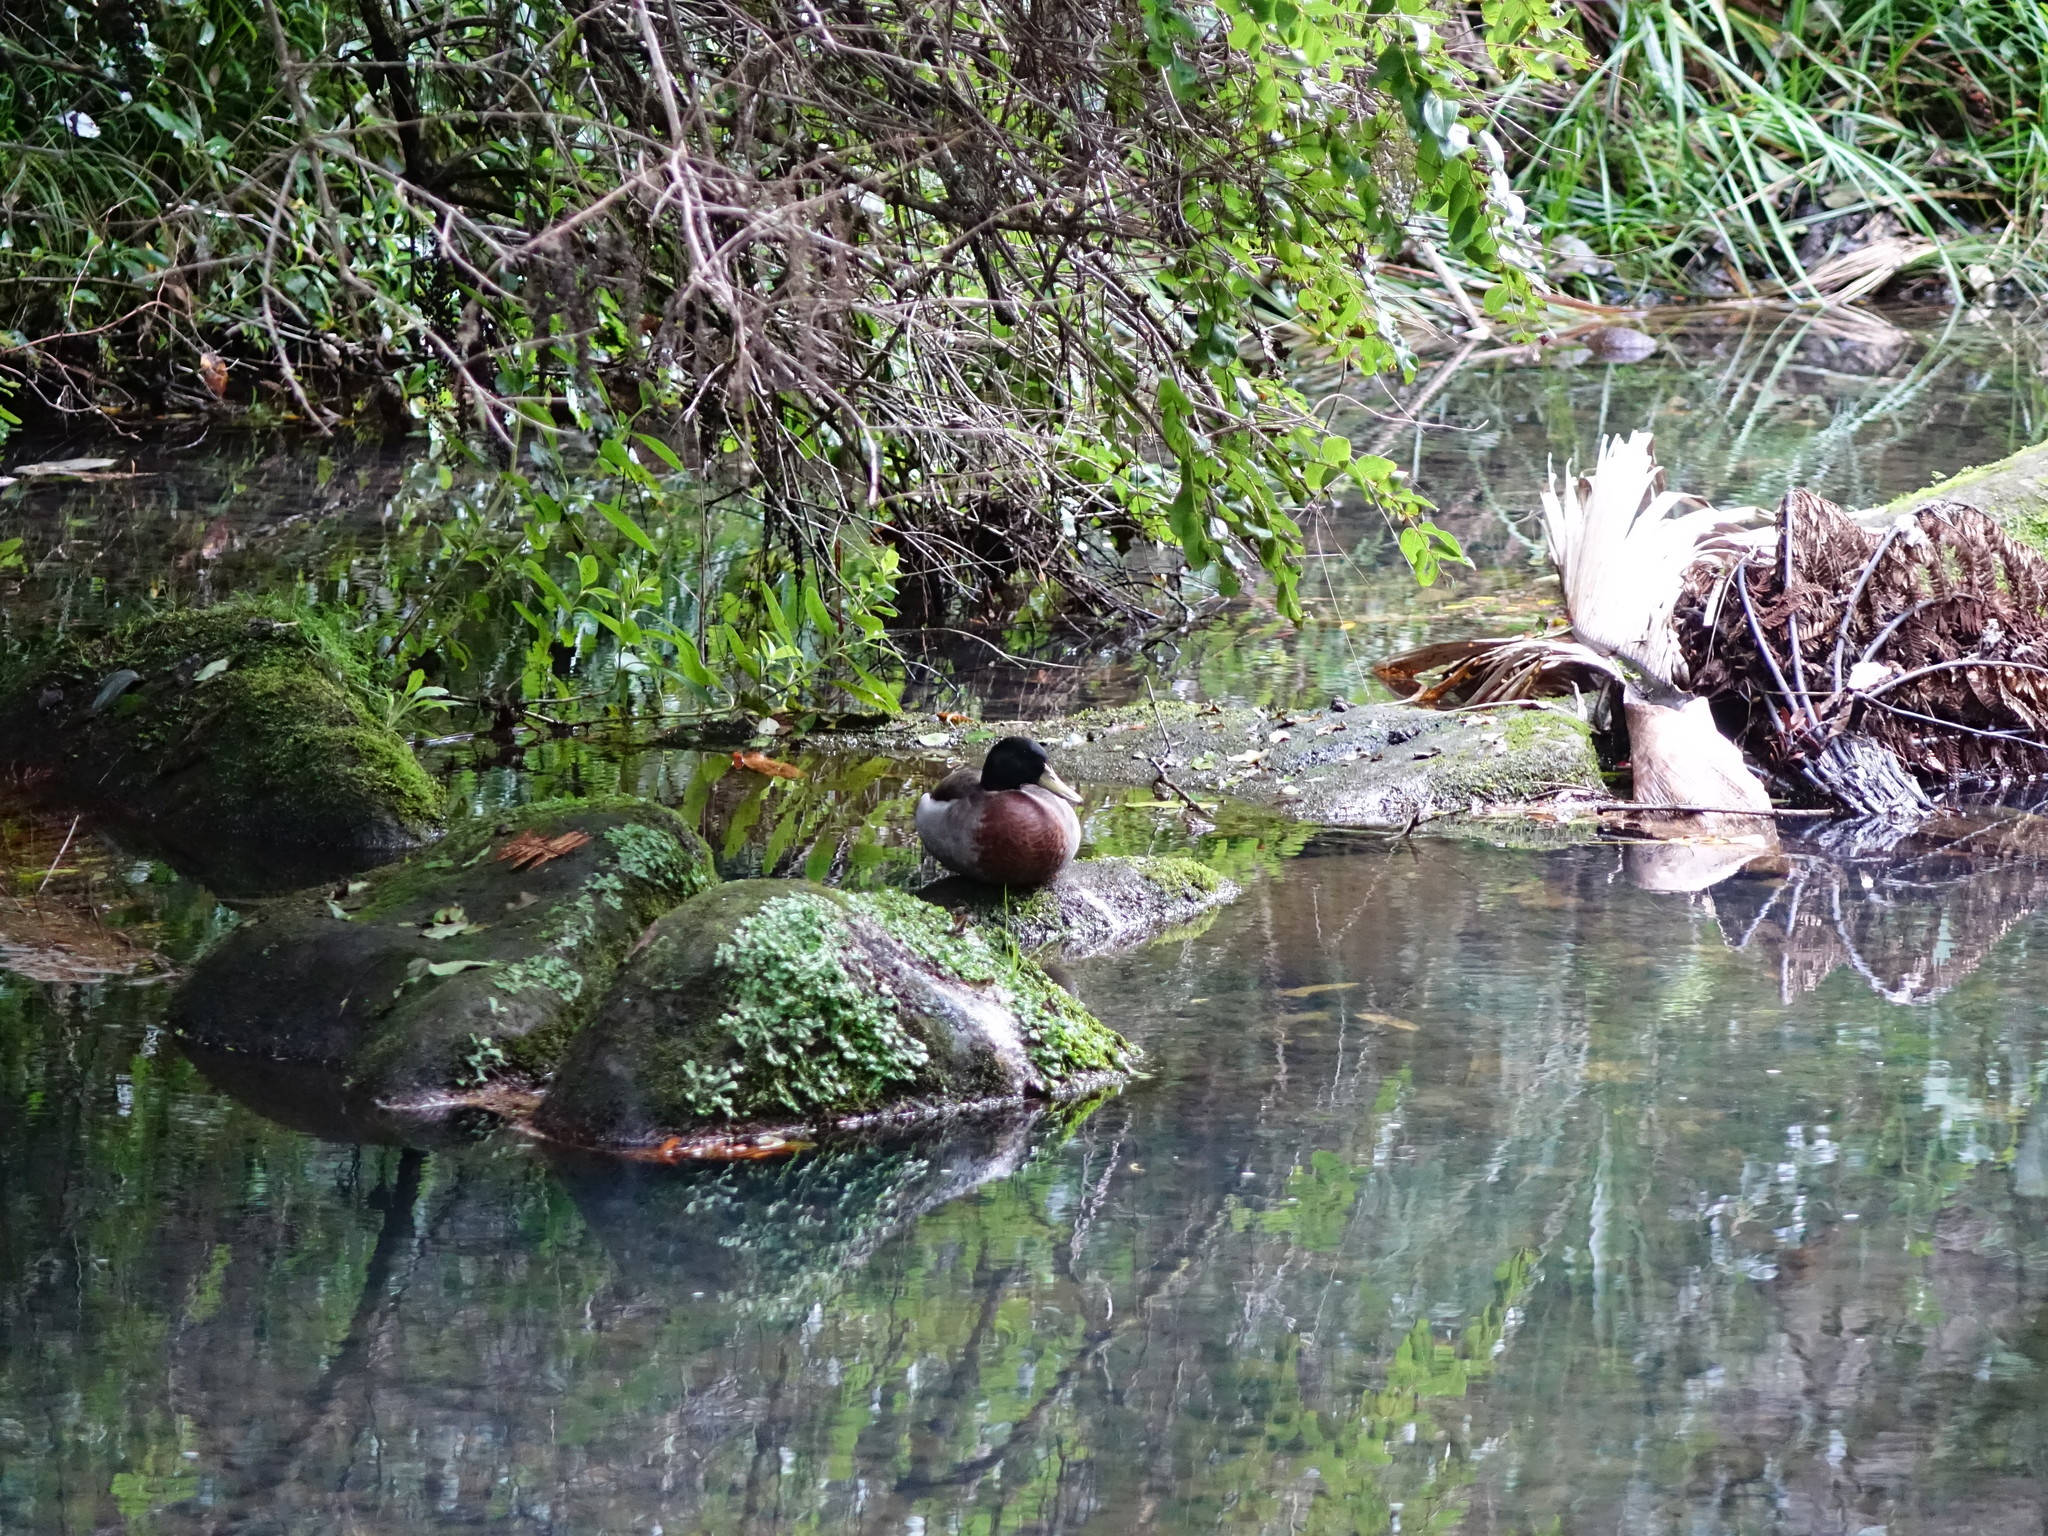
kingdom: Animalia
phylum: Chordata
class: Aves
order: Anseriformes
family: Anatidae
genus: Anas
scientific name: Anas platyrhynchos
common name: Mallard
